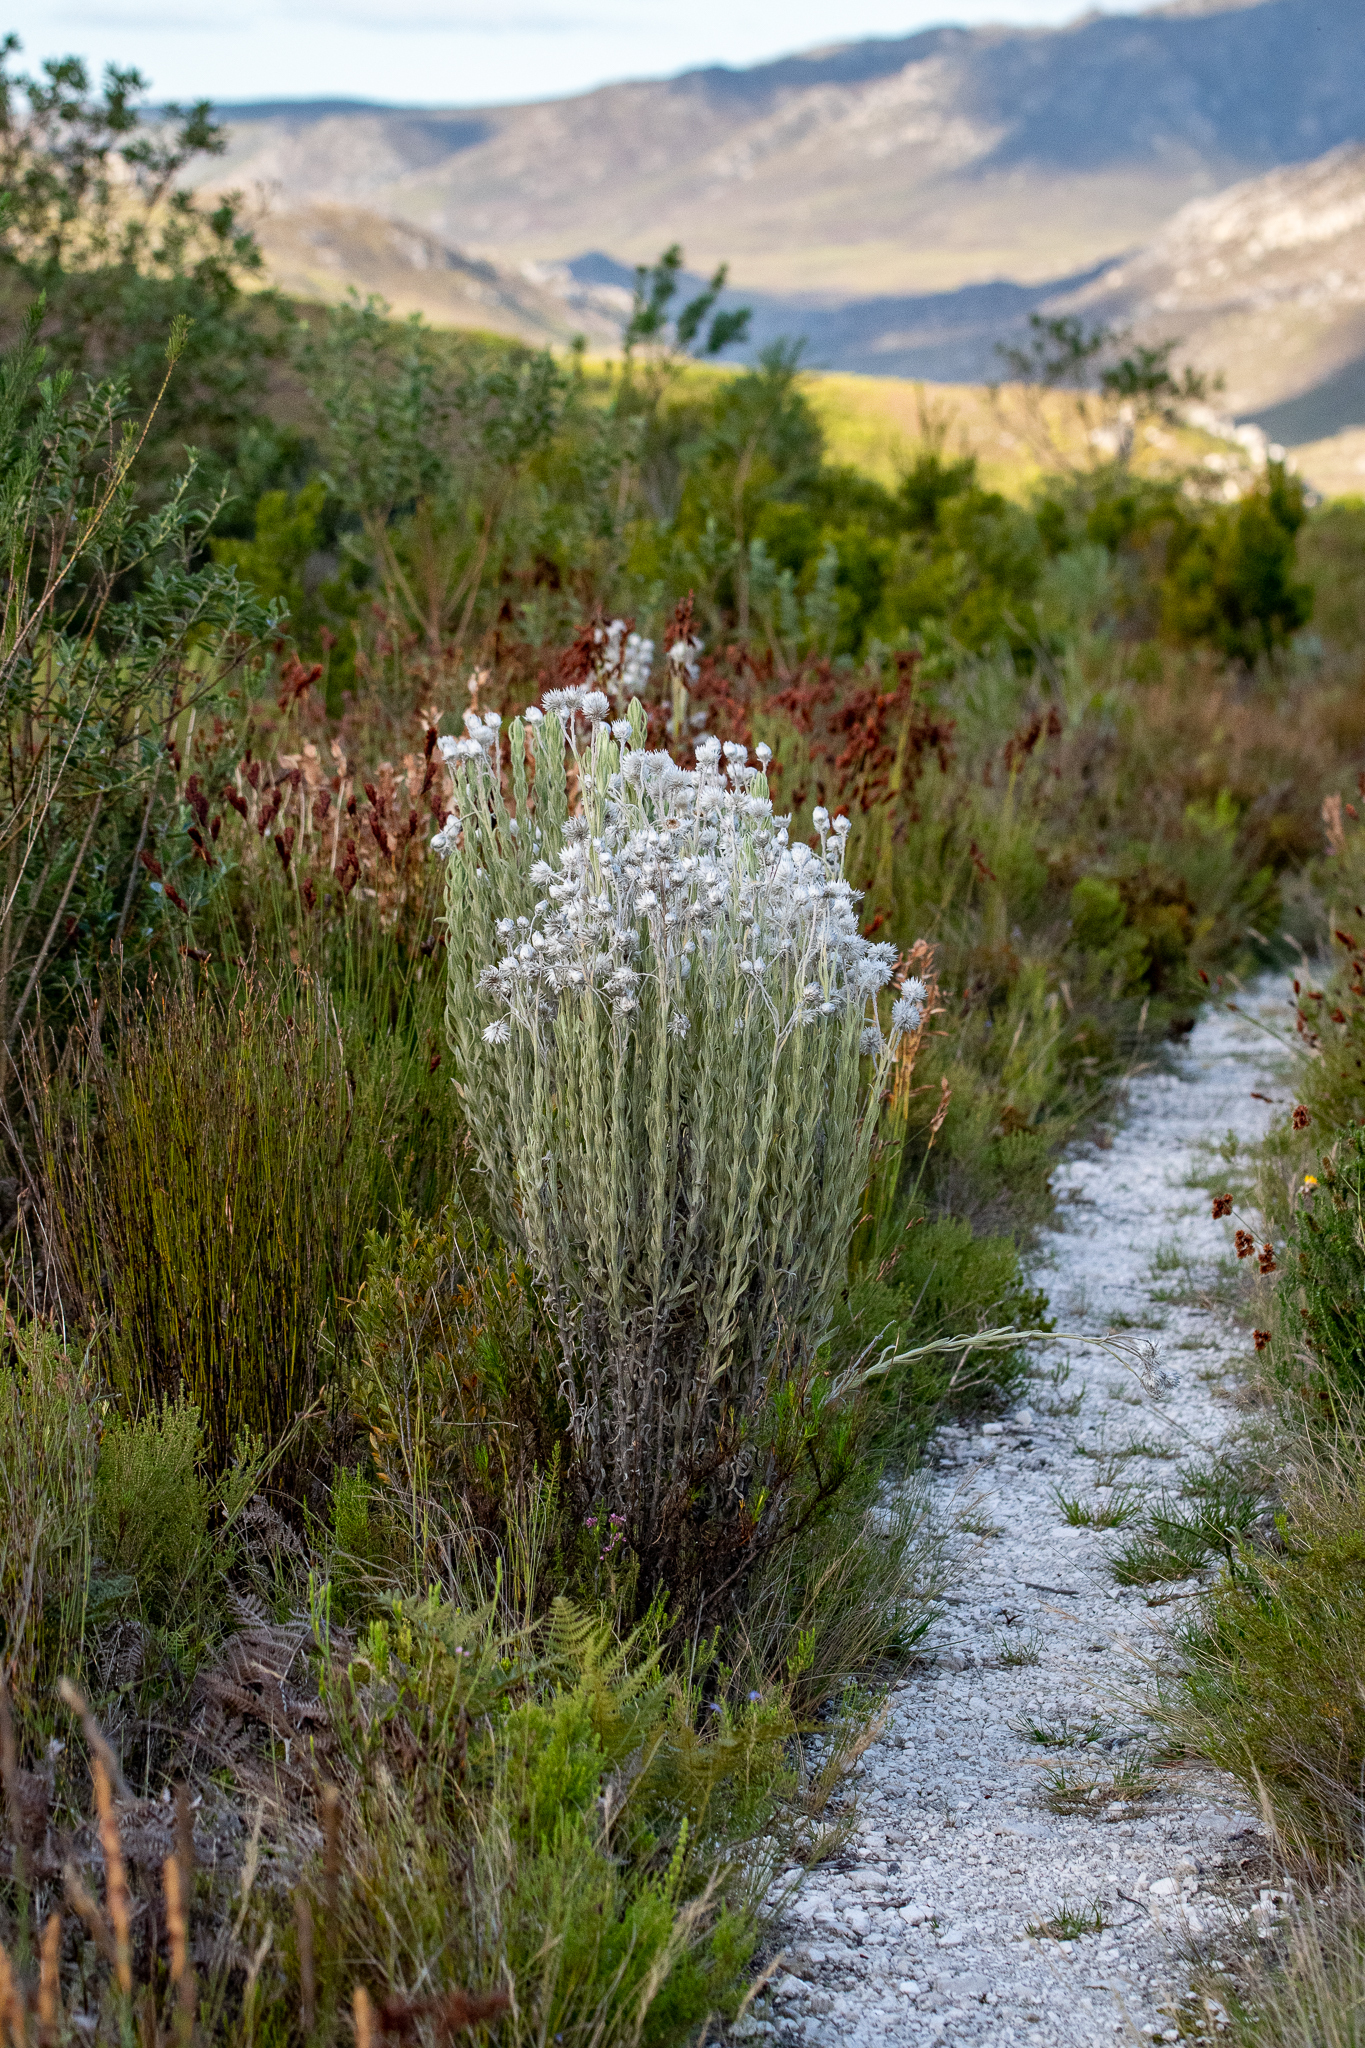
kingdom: Plantae
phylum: Tracheophyta
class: Magnoliopsida
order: Asterales
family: Asteraceae
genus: Syncarpha
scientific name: Syncarpha vestita
